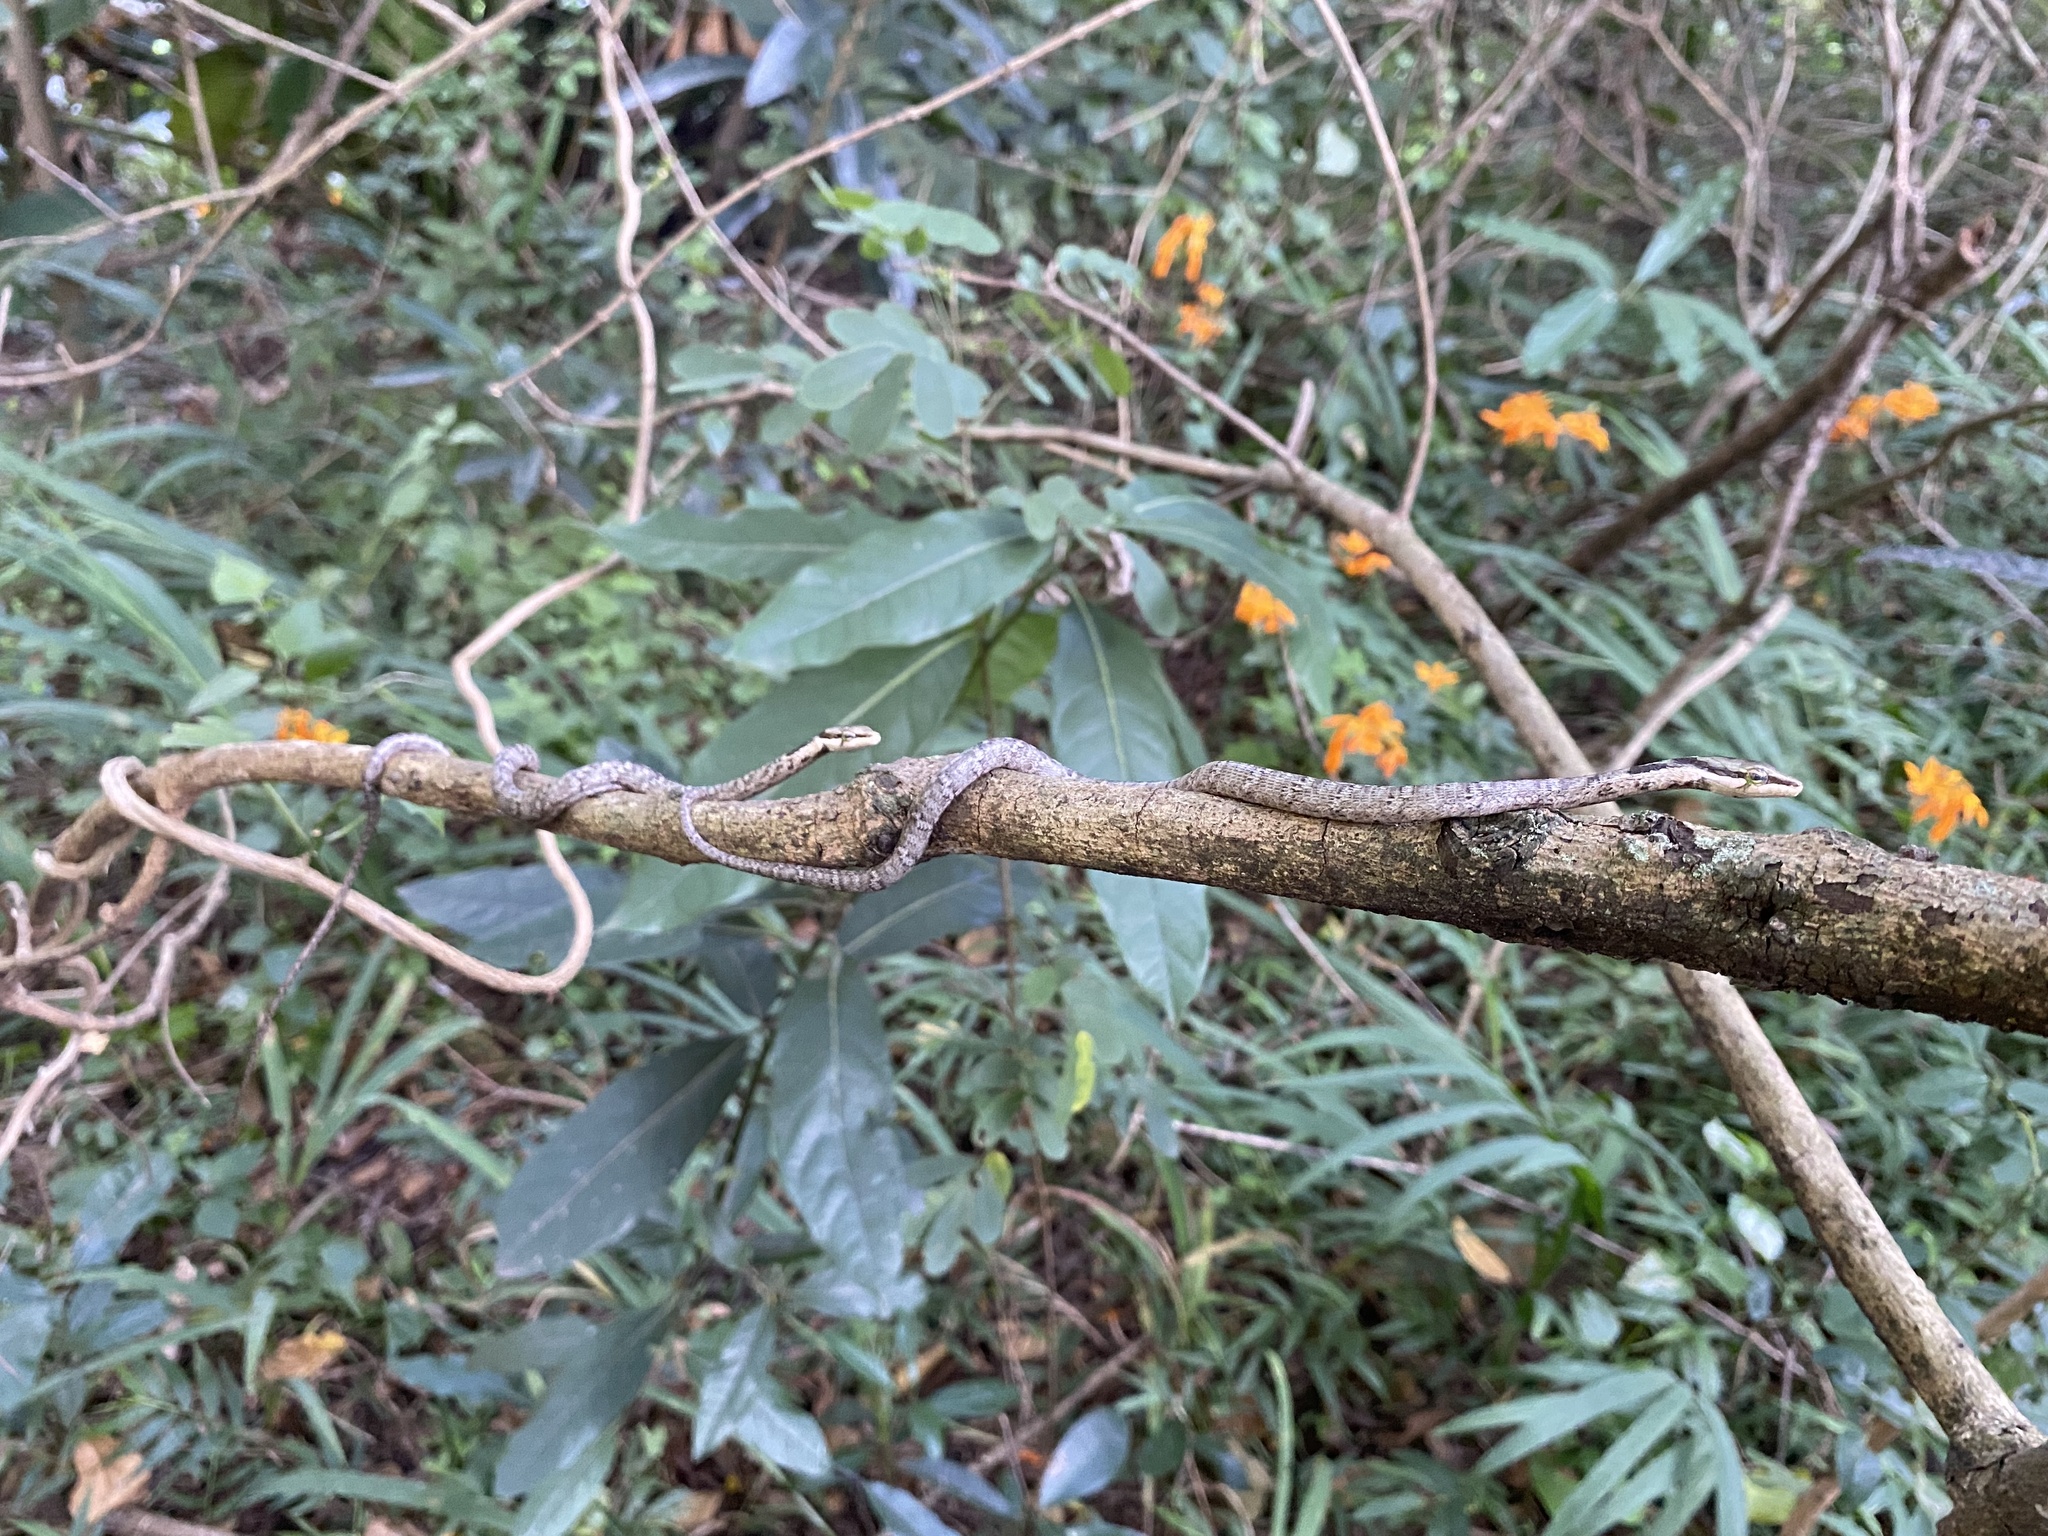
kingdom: Animalia
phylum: Chordata
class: Squamata
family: Colubridae
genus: Thelotornis
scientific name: Thelotornis capensis
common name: Savanna vine snake
